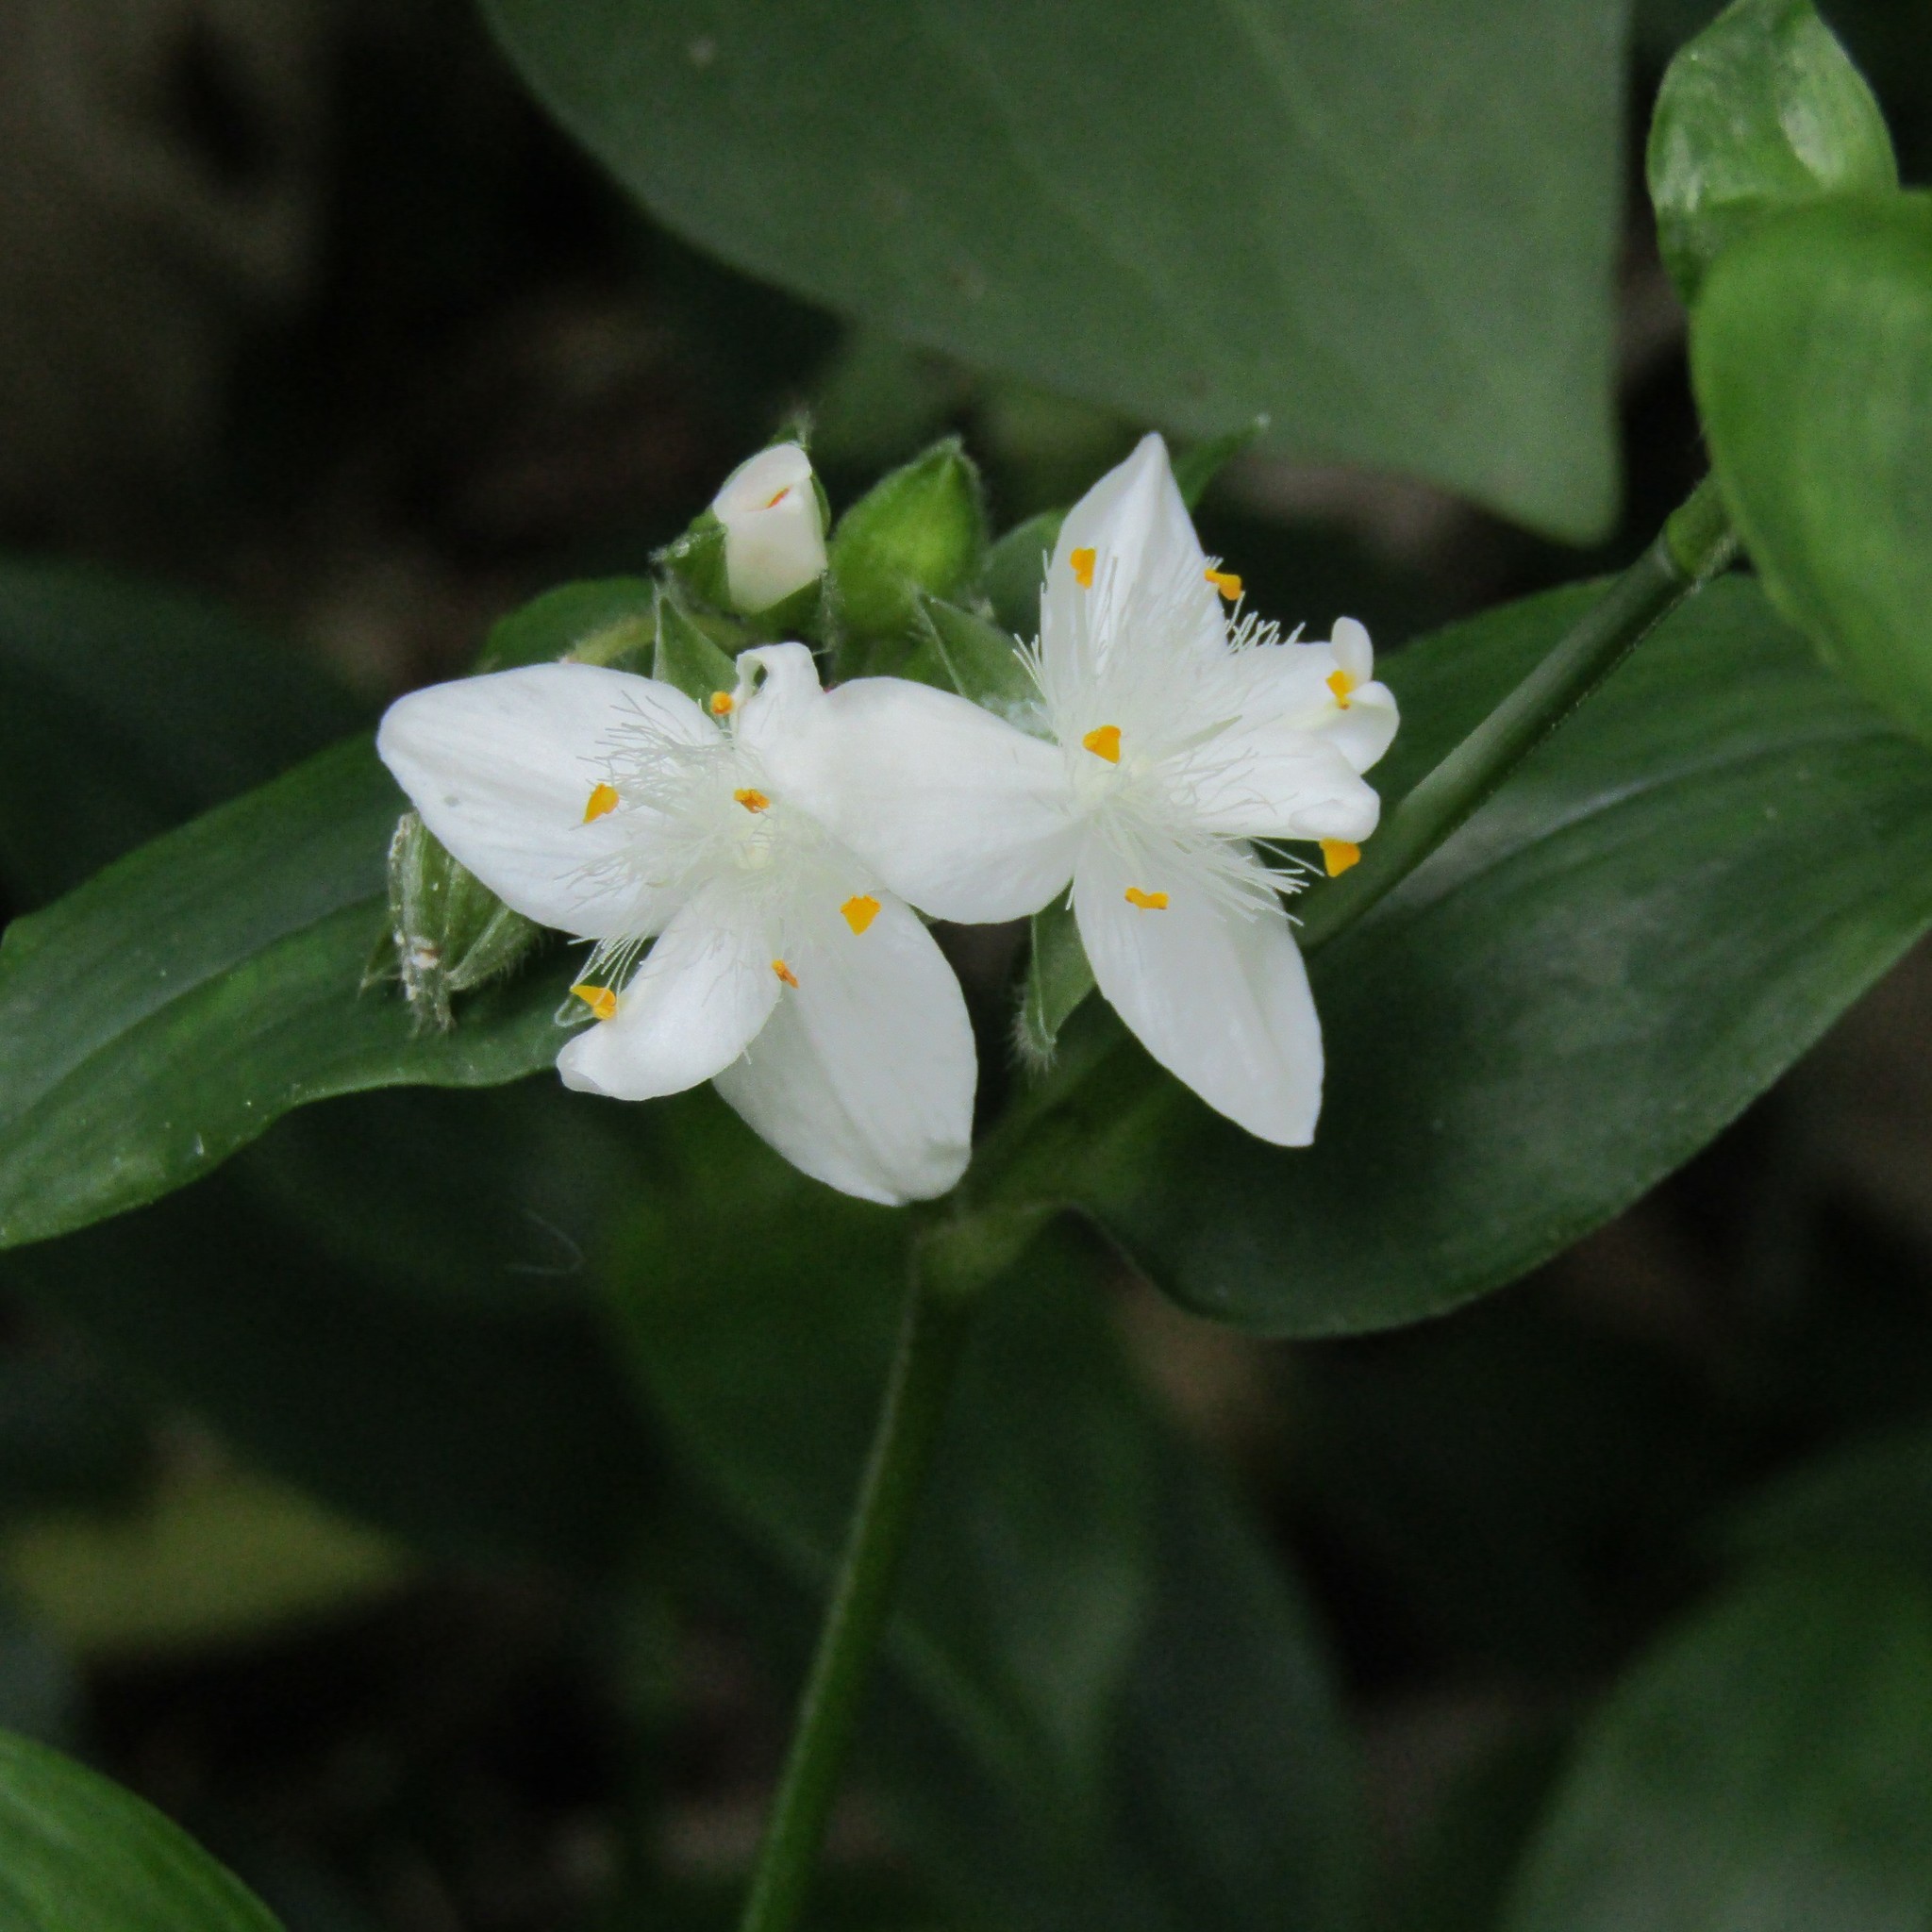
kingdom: Plantae
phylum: Tracheophyta
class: Liliopsida
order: Commelinales
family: Commelinaceae
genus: Tradescantia
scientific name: Tradescantia fluminensis
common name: Wandering-jew
